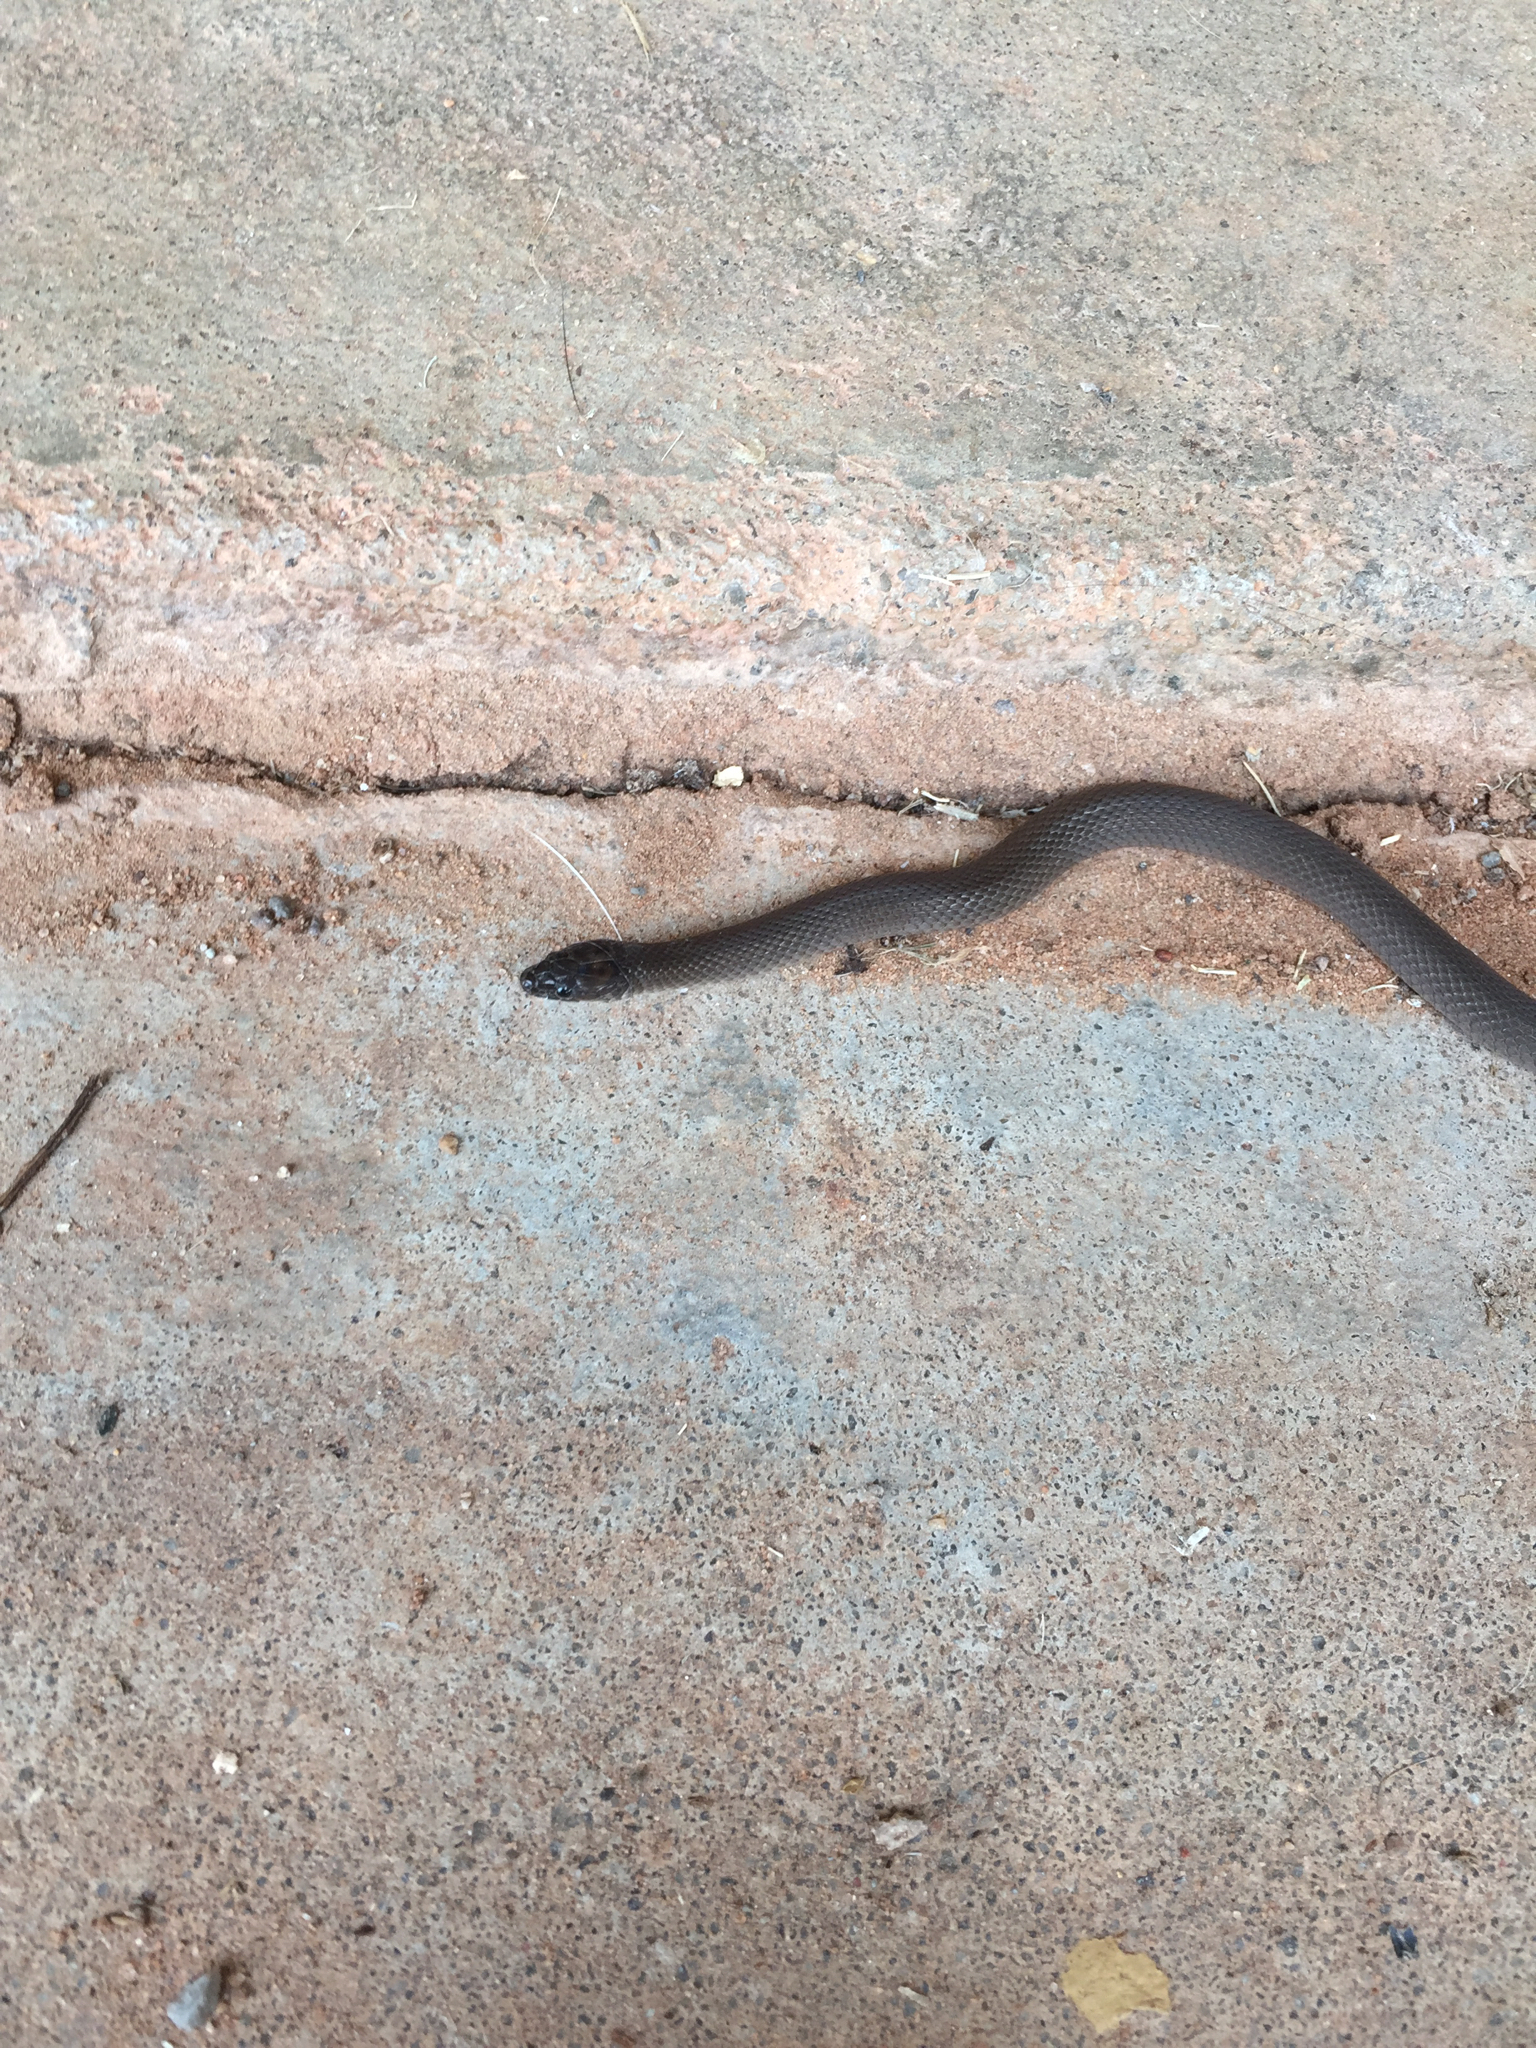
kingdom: Animalia
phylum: Chordata
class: Squamata
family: Colubridae
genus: Haldea
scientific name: Haldea striatula
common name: Rough earth snake
